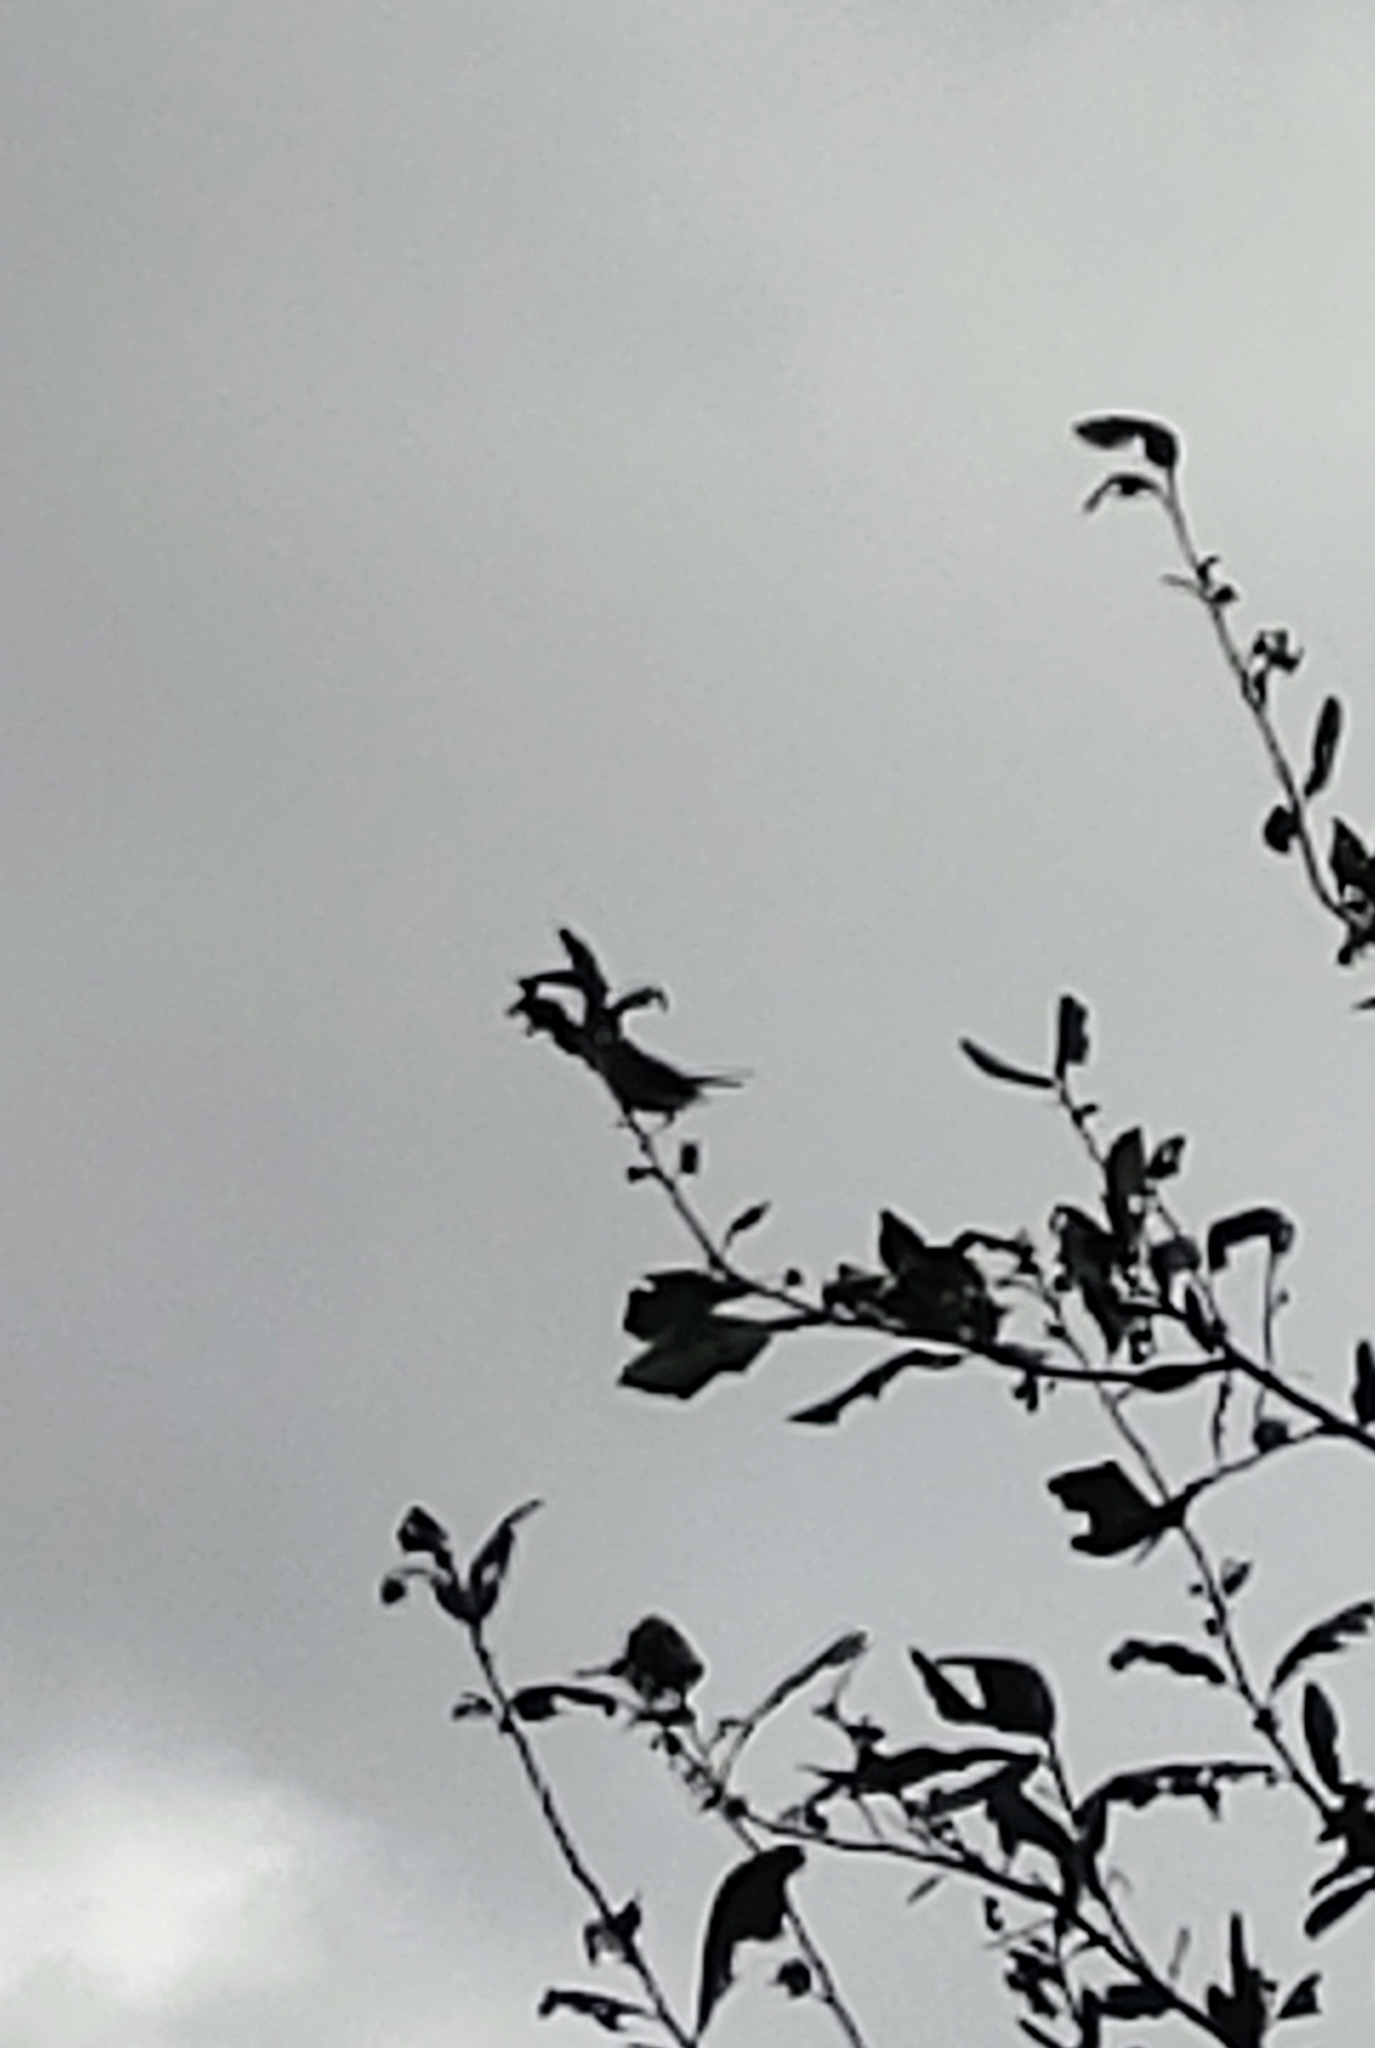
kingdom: Animalia
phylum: Chordata
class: Aves
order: Passeriformes
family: Polioptilidae
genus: Polioptila
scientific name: Polioptila caerulea
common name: Blue-gray gnatcatcher
